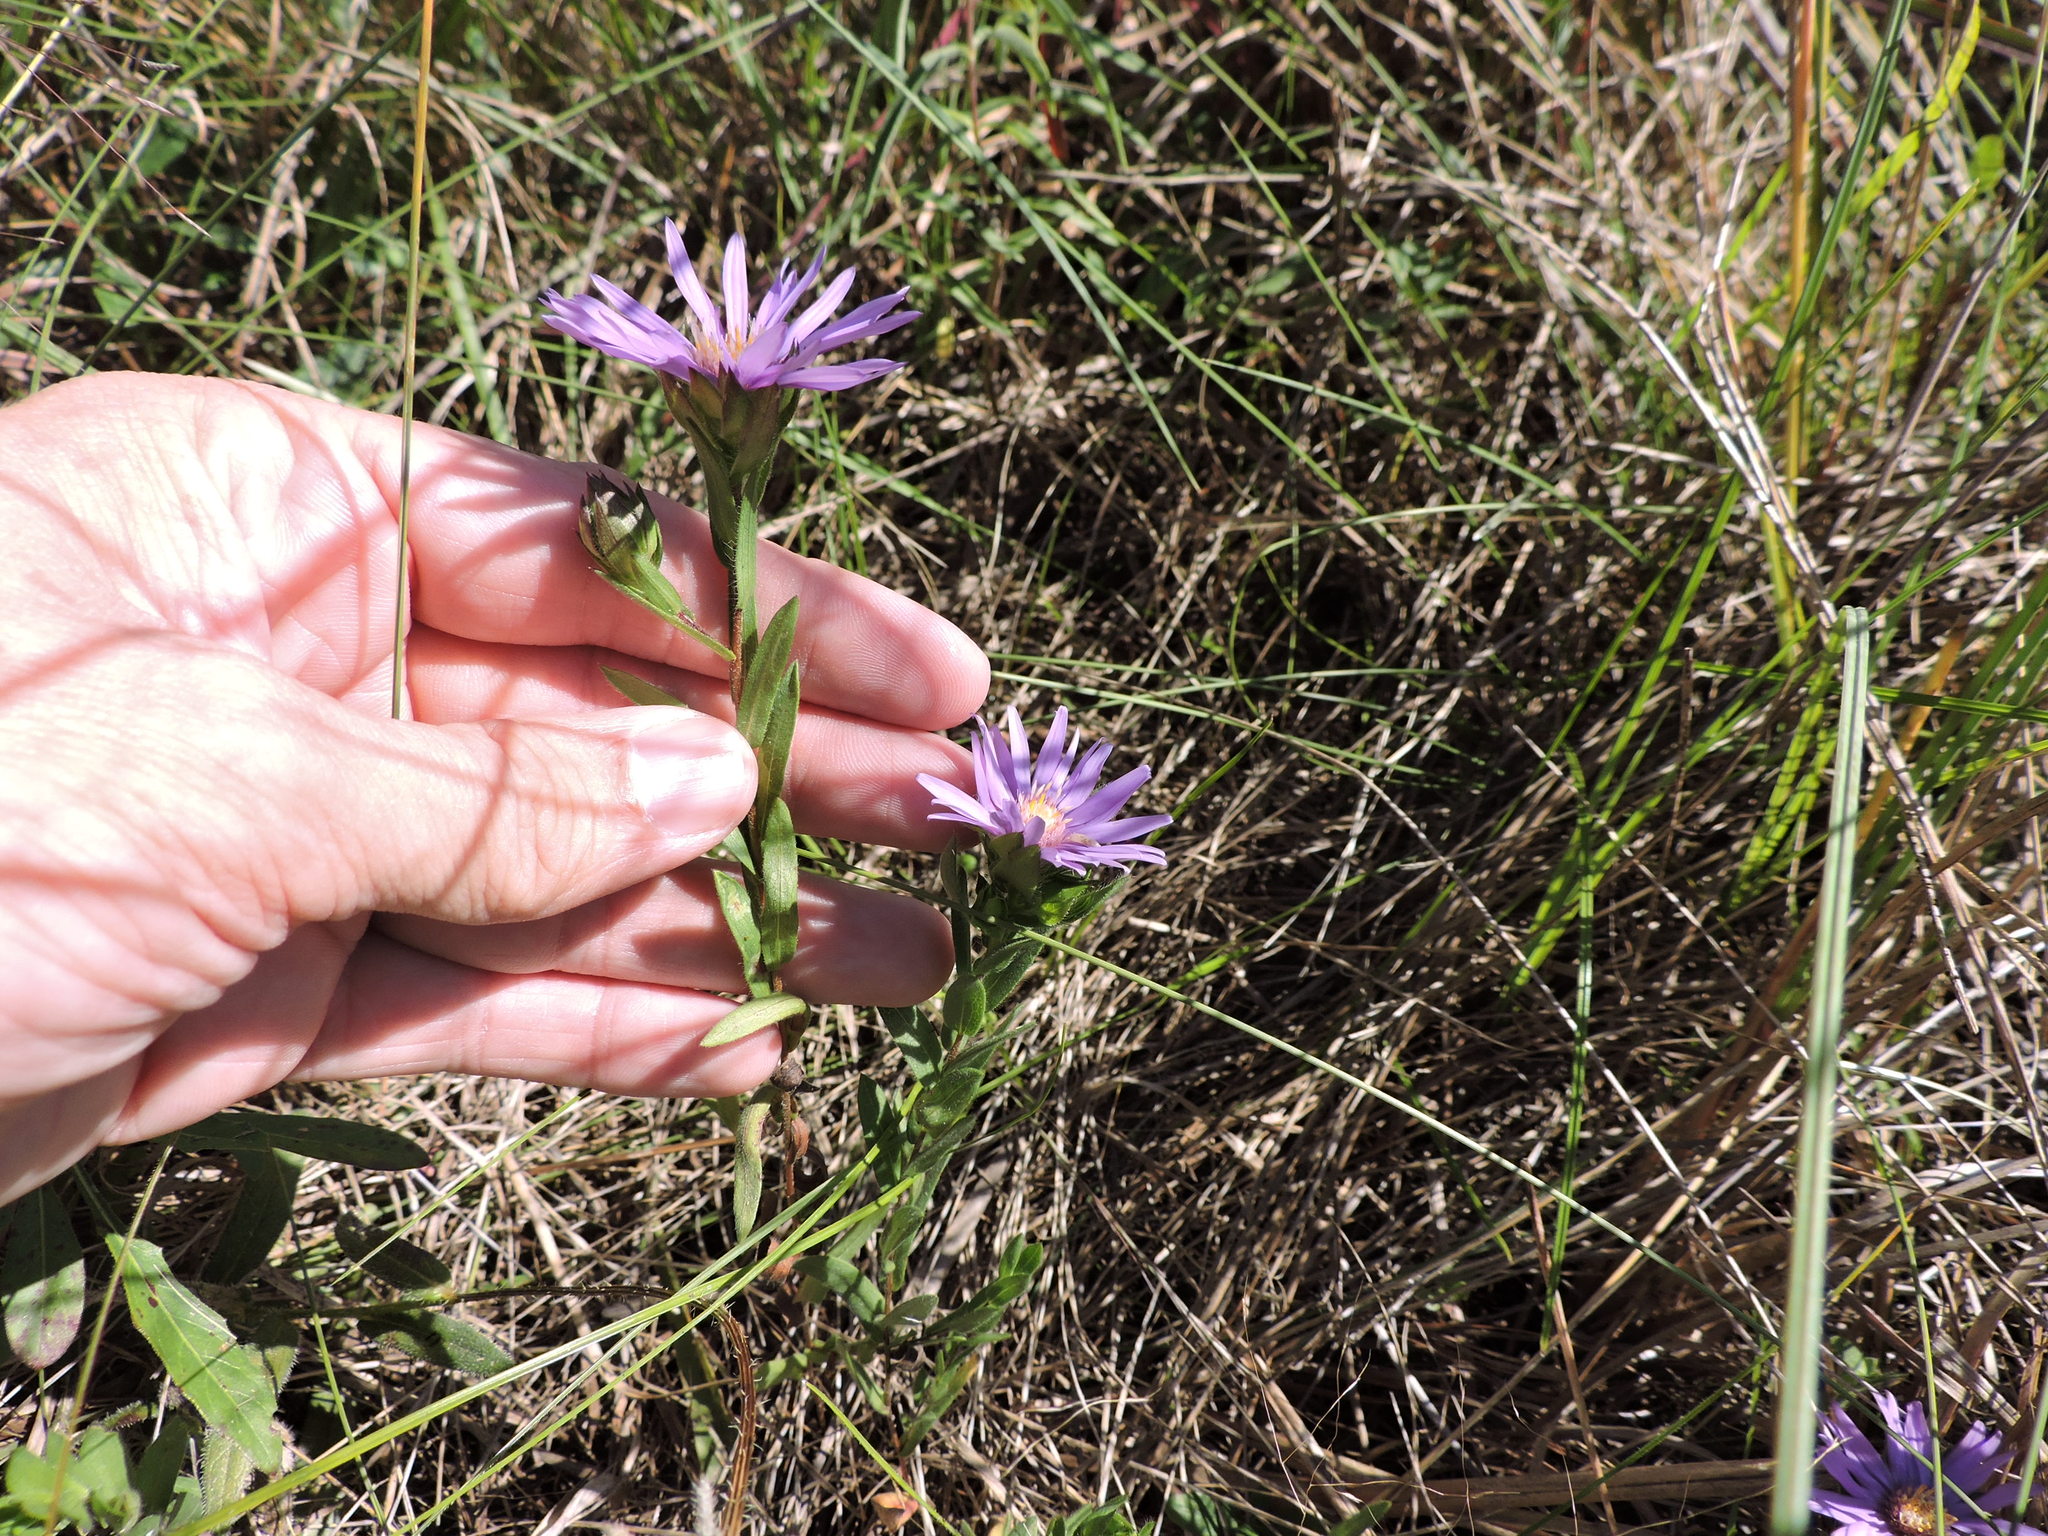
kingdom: Plantae
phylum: Tracheophyta
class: Magnoliopsida
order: Asterales
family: Asteraceae
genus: Symphyotrichum
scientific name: Symphyotrichum pratense
